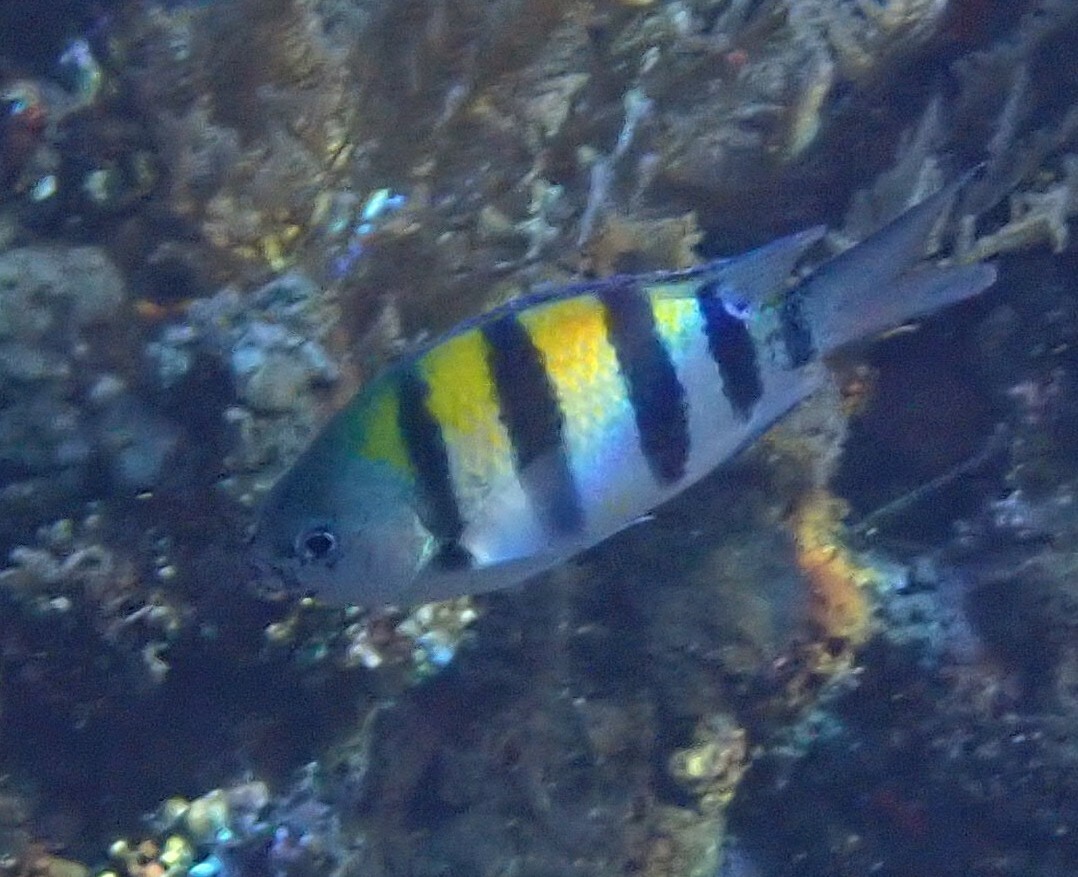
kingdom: Animalia
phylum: Chordata
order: Perciformes
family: Pomacentridae
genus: Abudefduf
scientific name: Abudefduf vaigiensis
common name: Indo-pacific sergeant
